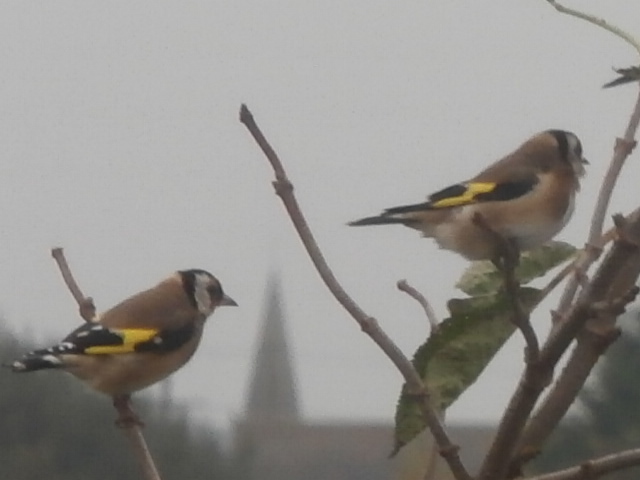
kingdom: Animalia
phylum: Chordata
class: Aves
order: Passeriformes
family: Fringillidae
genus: Carduelis
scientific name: Carduelis carduelis
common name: European goldfinch
